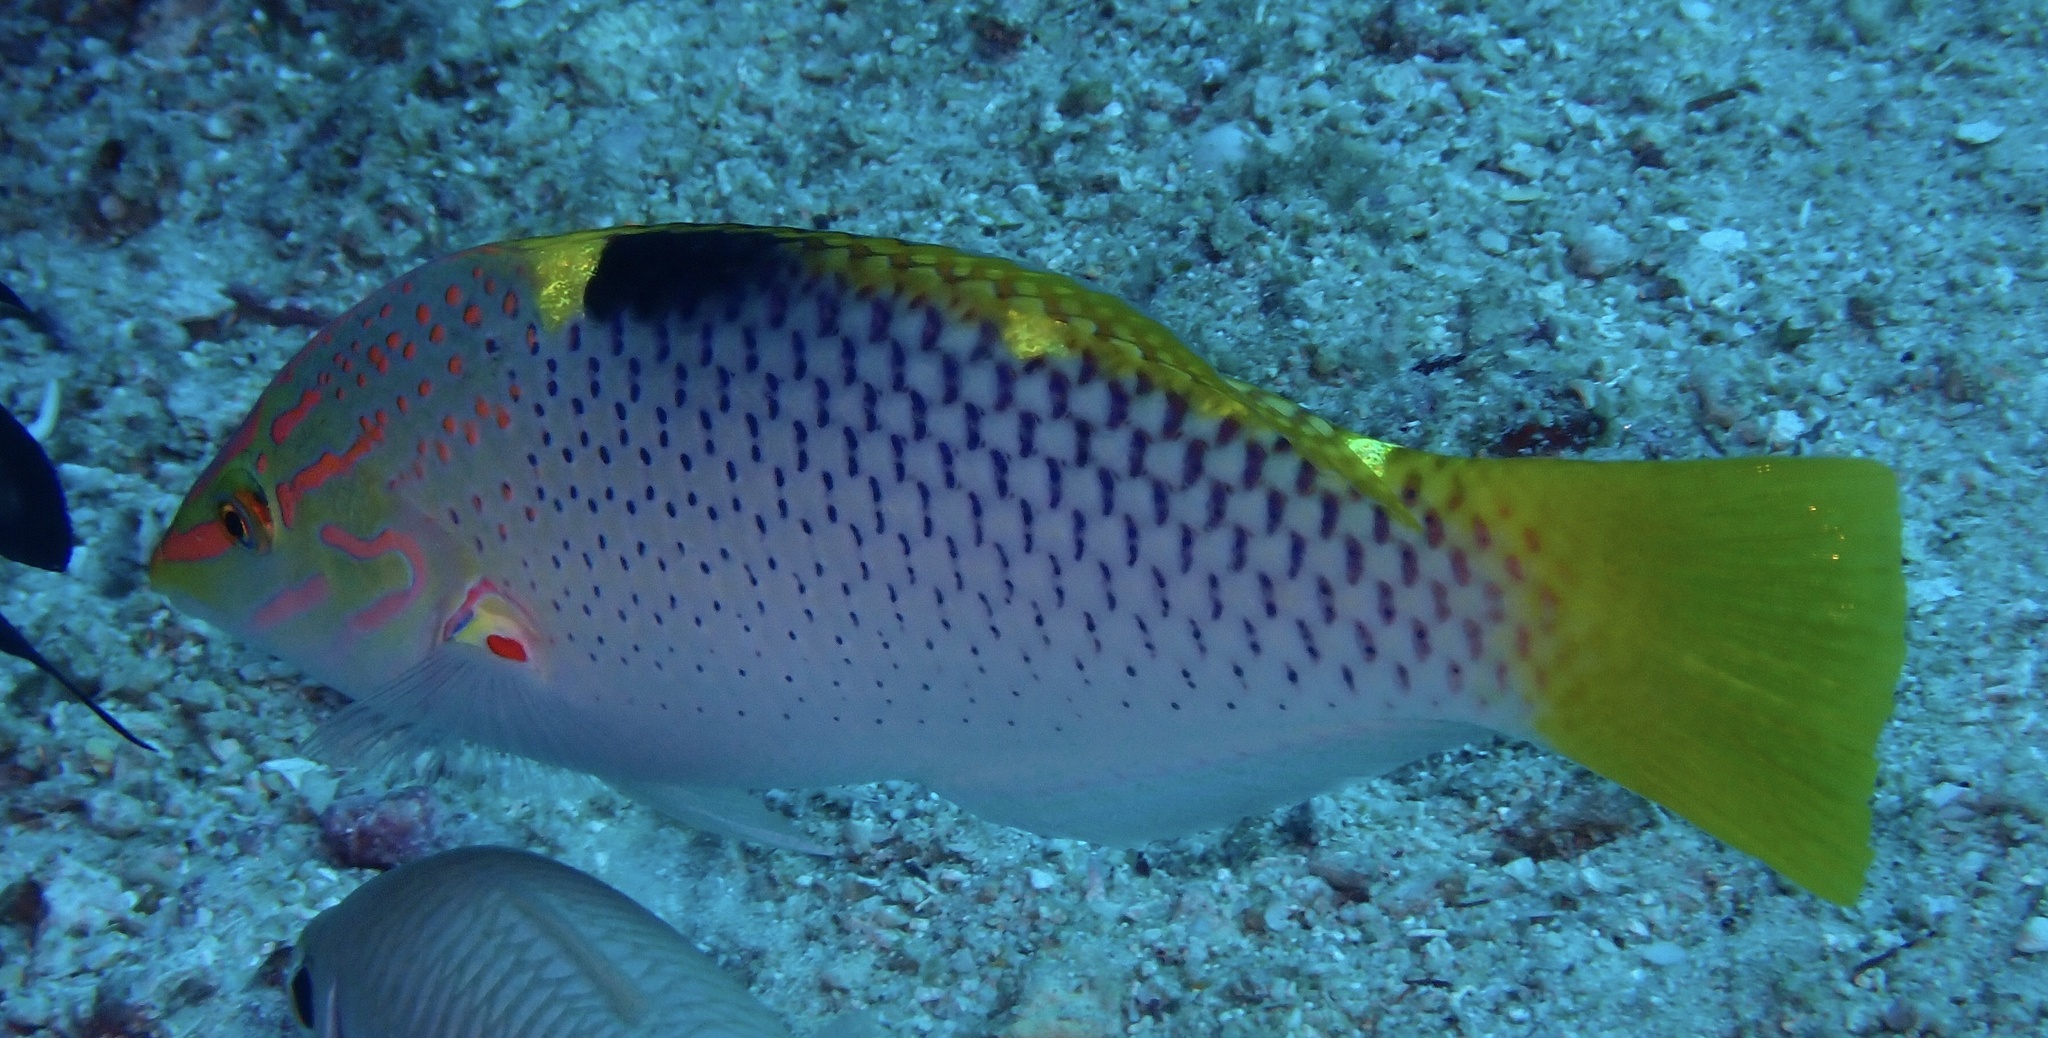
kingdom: Animalia
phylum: Chordata
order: Perciformes
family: Labridae
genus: Halichoeres
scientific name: Halichoeres hortulanus
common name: Checkerboard wrasse
